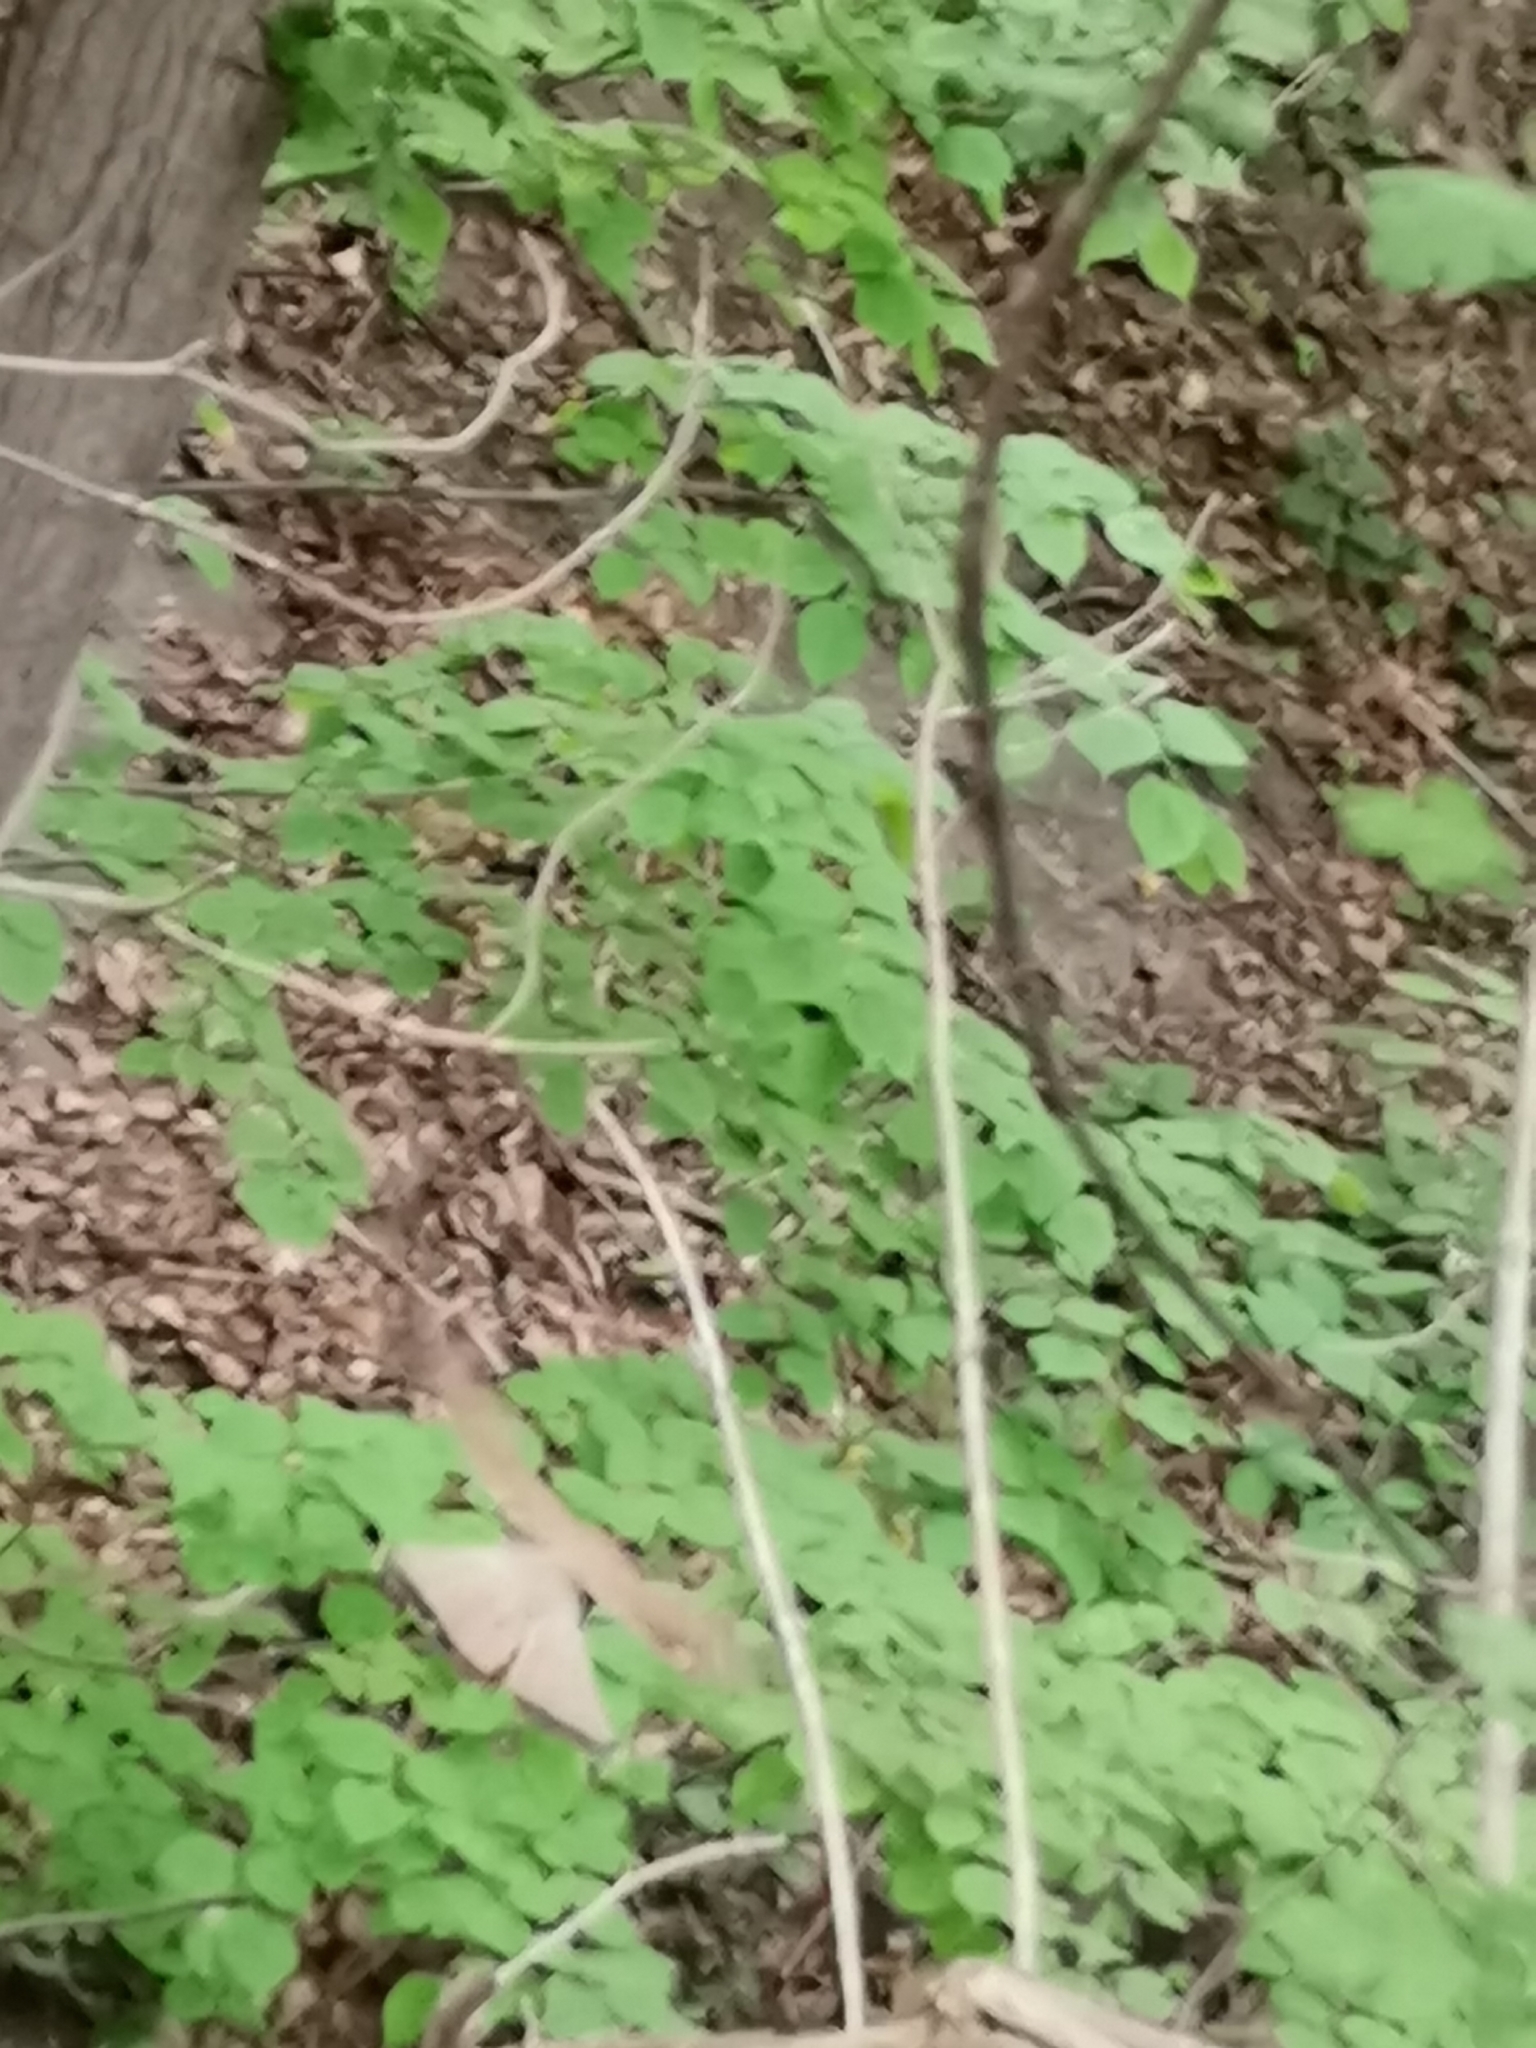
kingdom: Animalia
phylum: Chordata
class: Aves
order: Falconiformes
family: Falconidae
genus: Falco
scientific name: Falco tinnunculus
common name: Common kestrel
